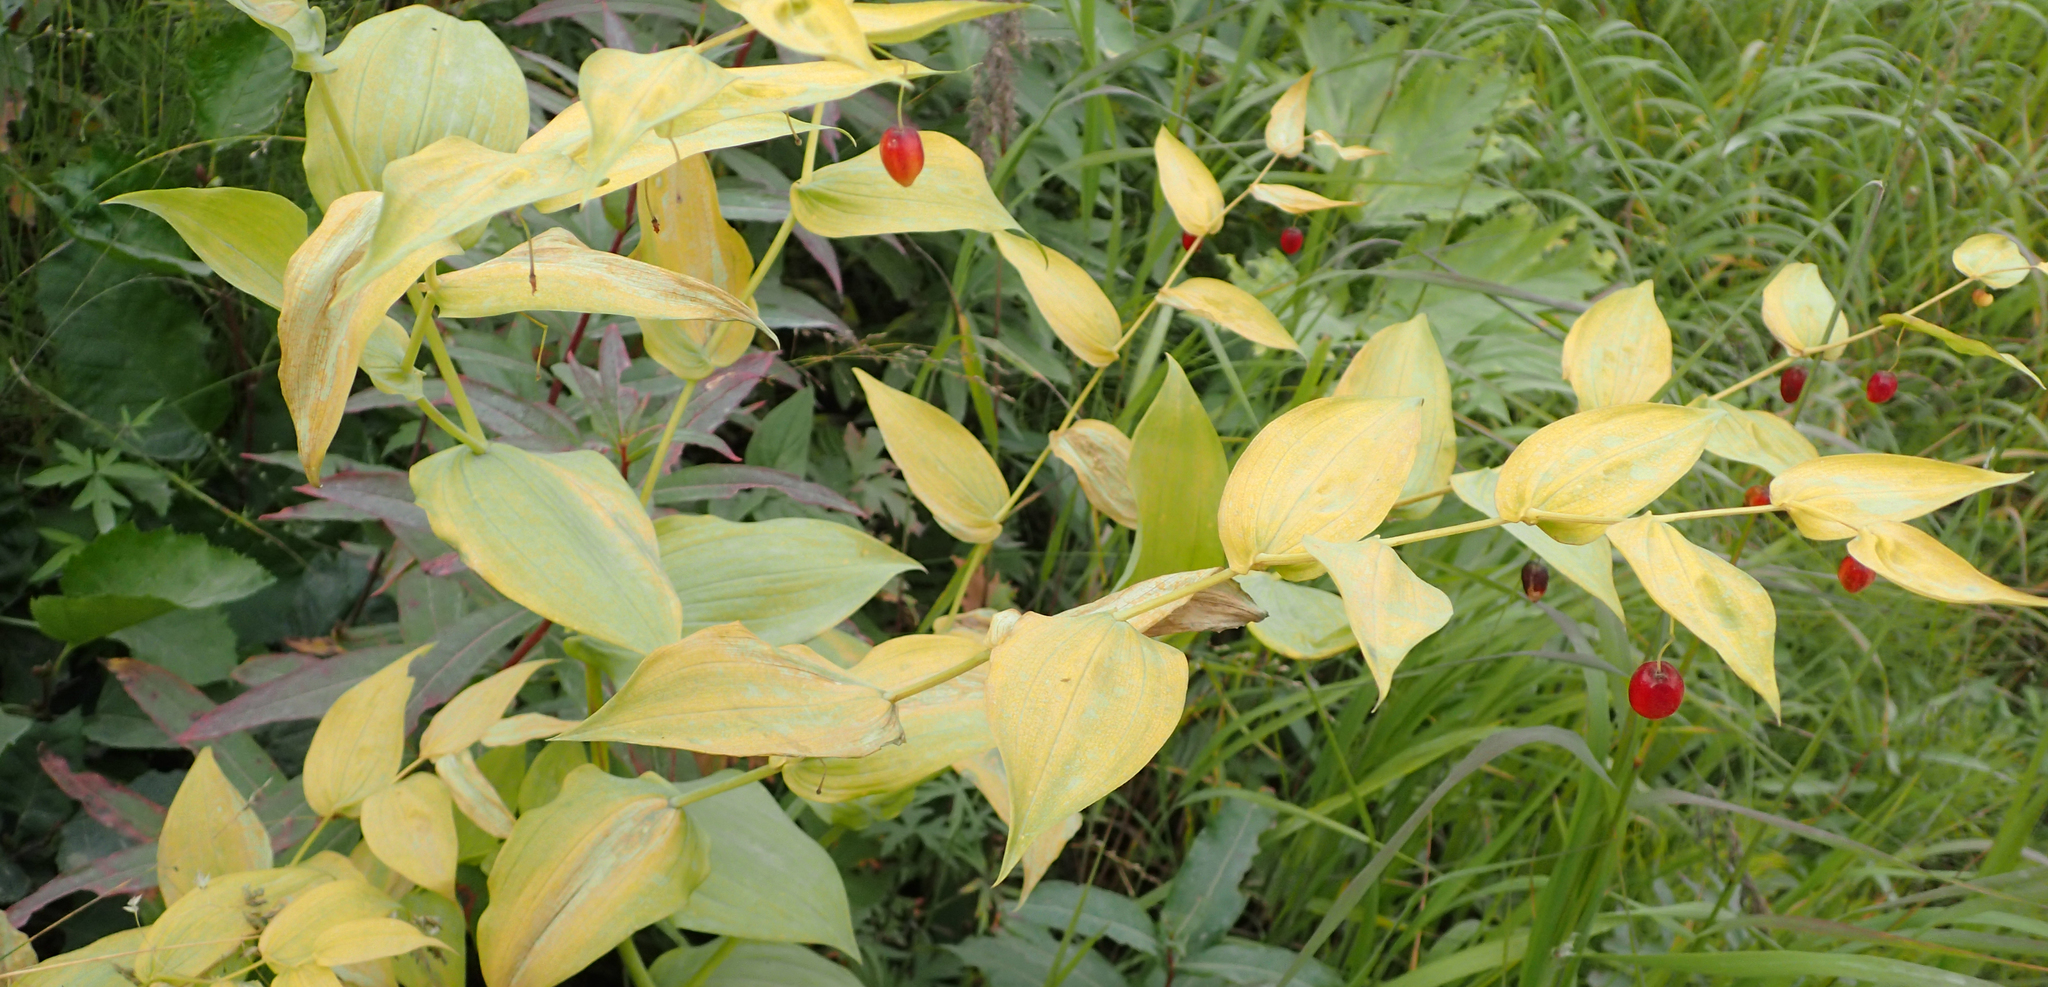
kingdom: Plantae
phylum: Tracheophyta
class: Liliopsida
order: Liliales
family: Liliaceae
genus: Streptopus
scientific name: Streptopus amplexifolius
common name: Clasp twisted stalk
